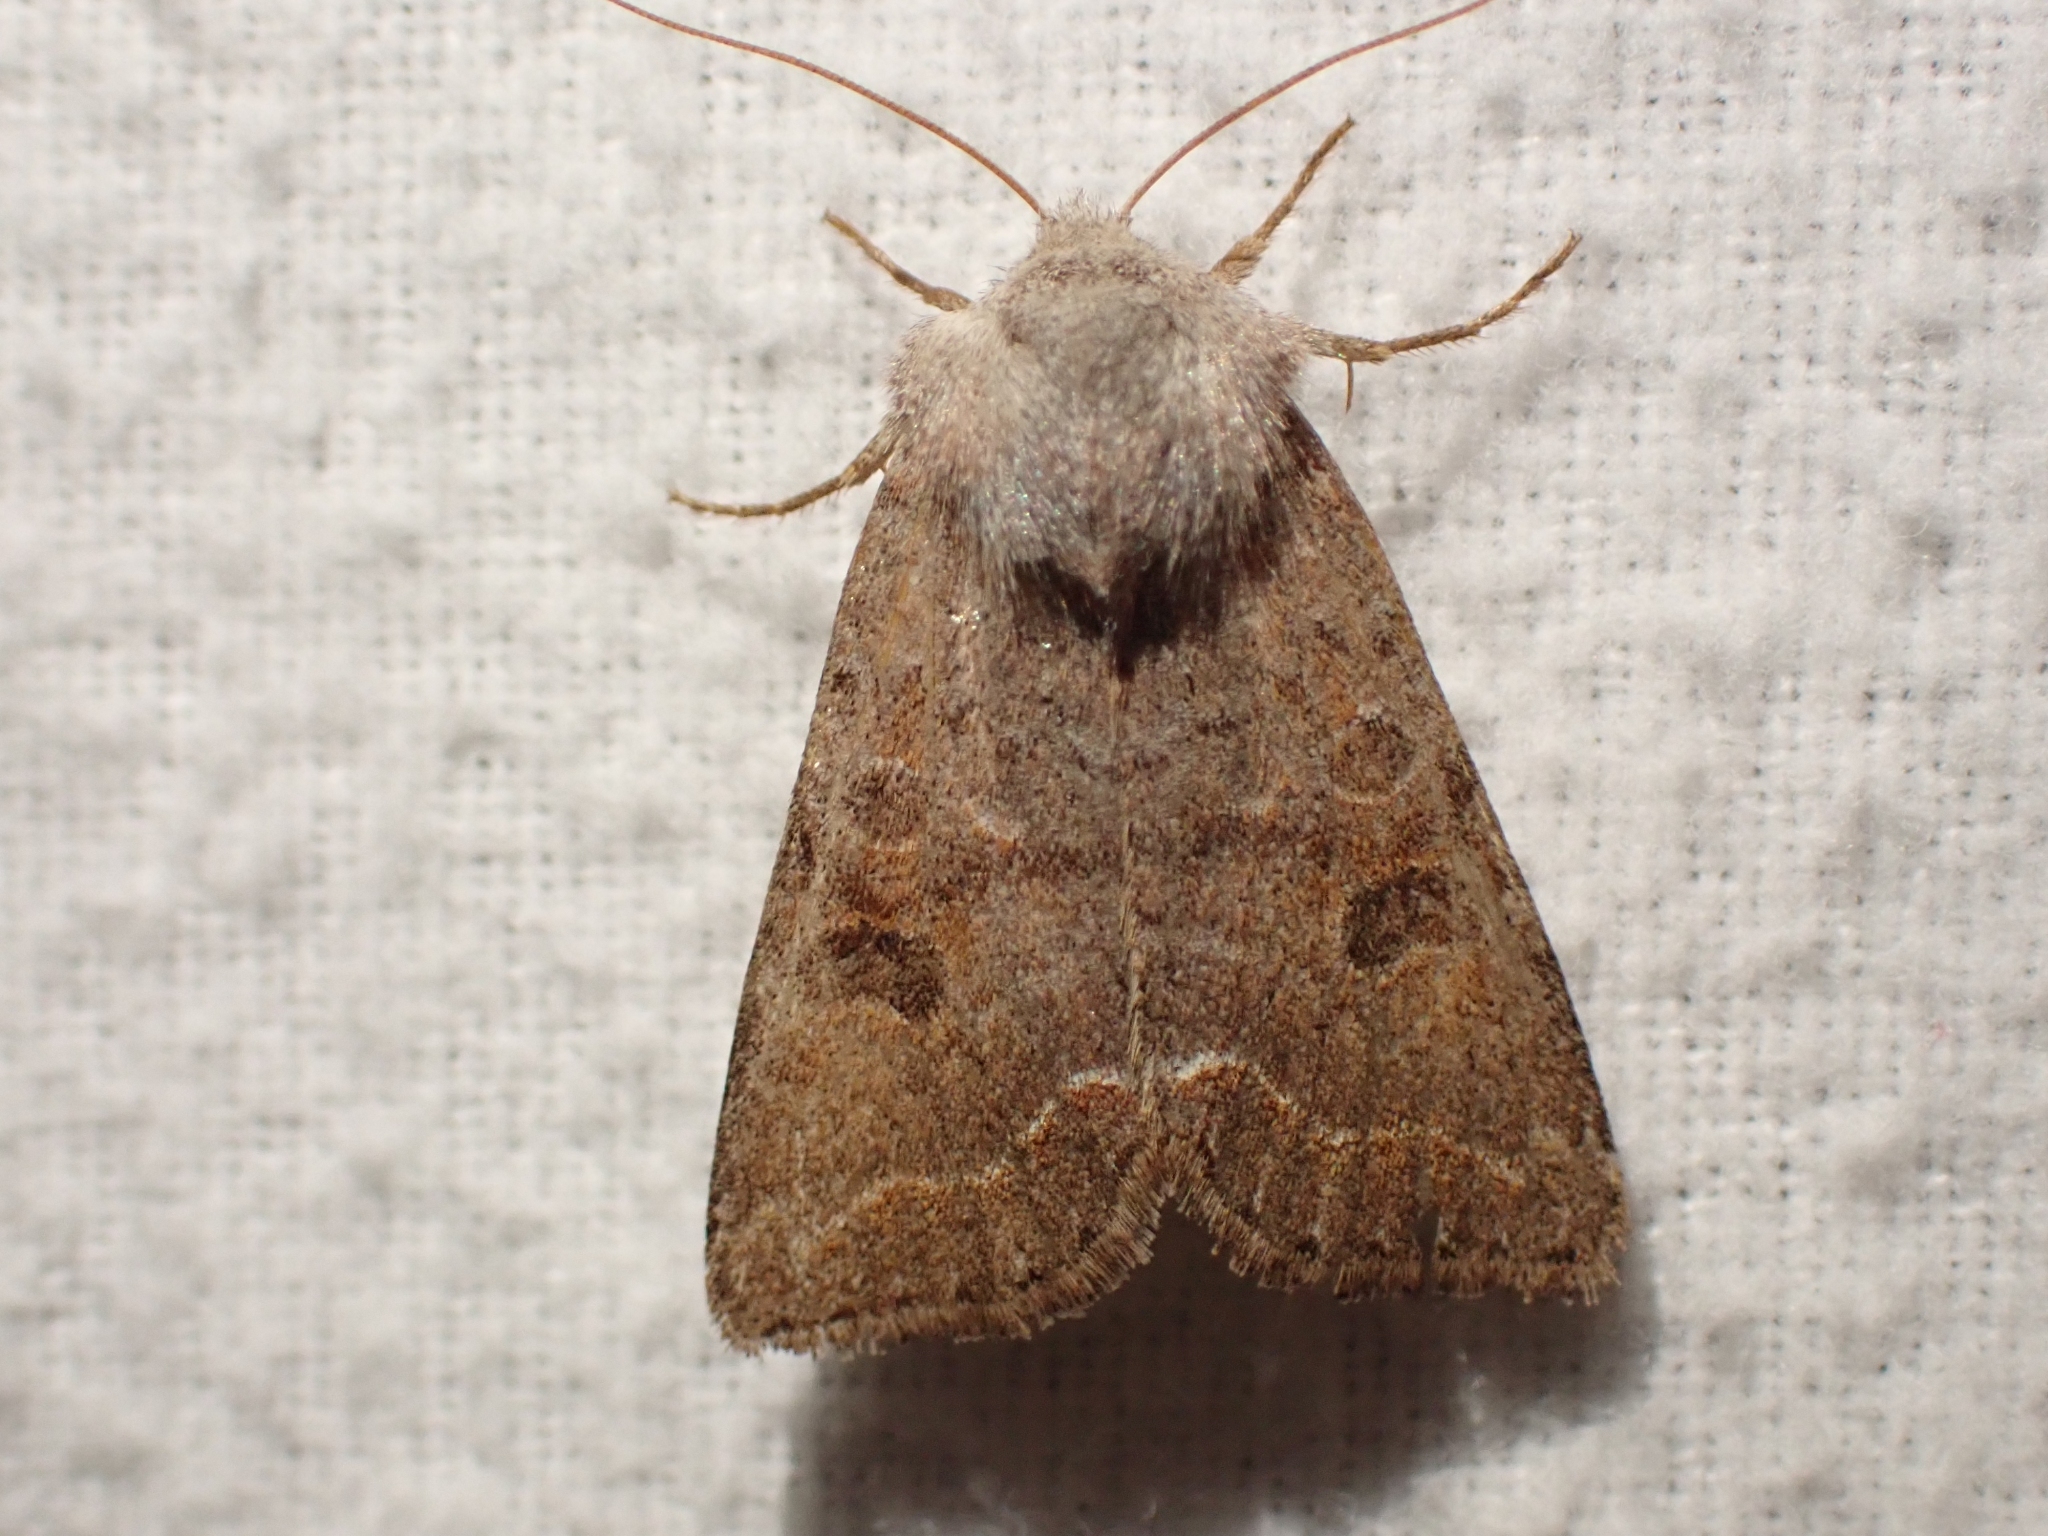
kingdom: Animalia
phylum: Arthropoda
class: Insecta
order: Lepidoptera
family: Noctuidae
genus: Orthosia
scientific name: Orthosia revicta
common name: Rusty whitesided caterpillar
